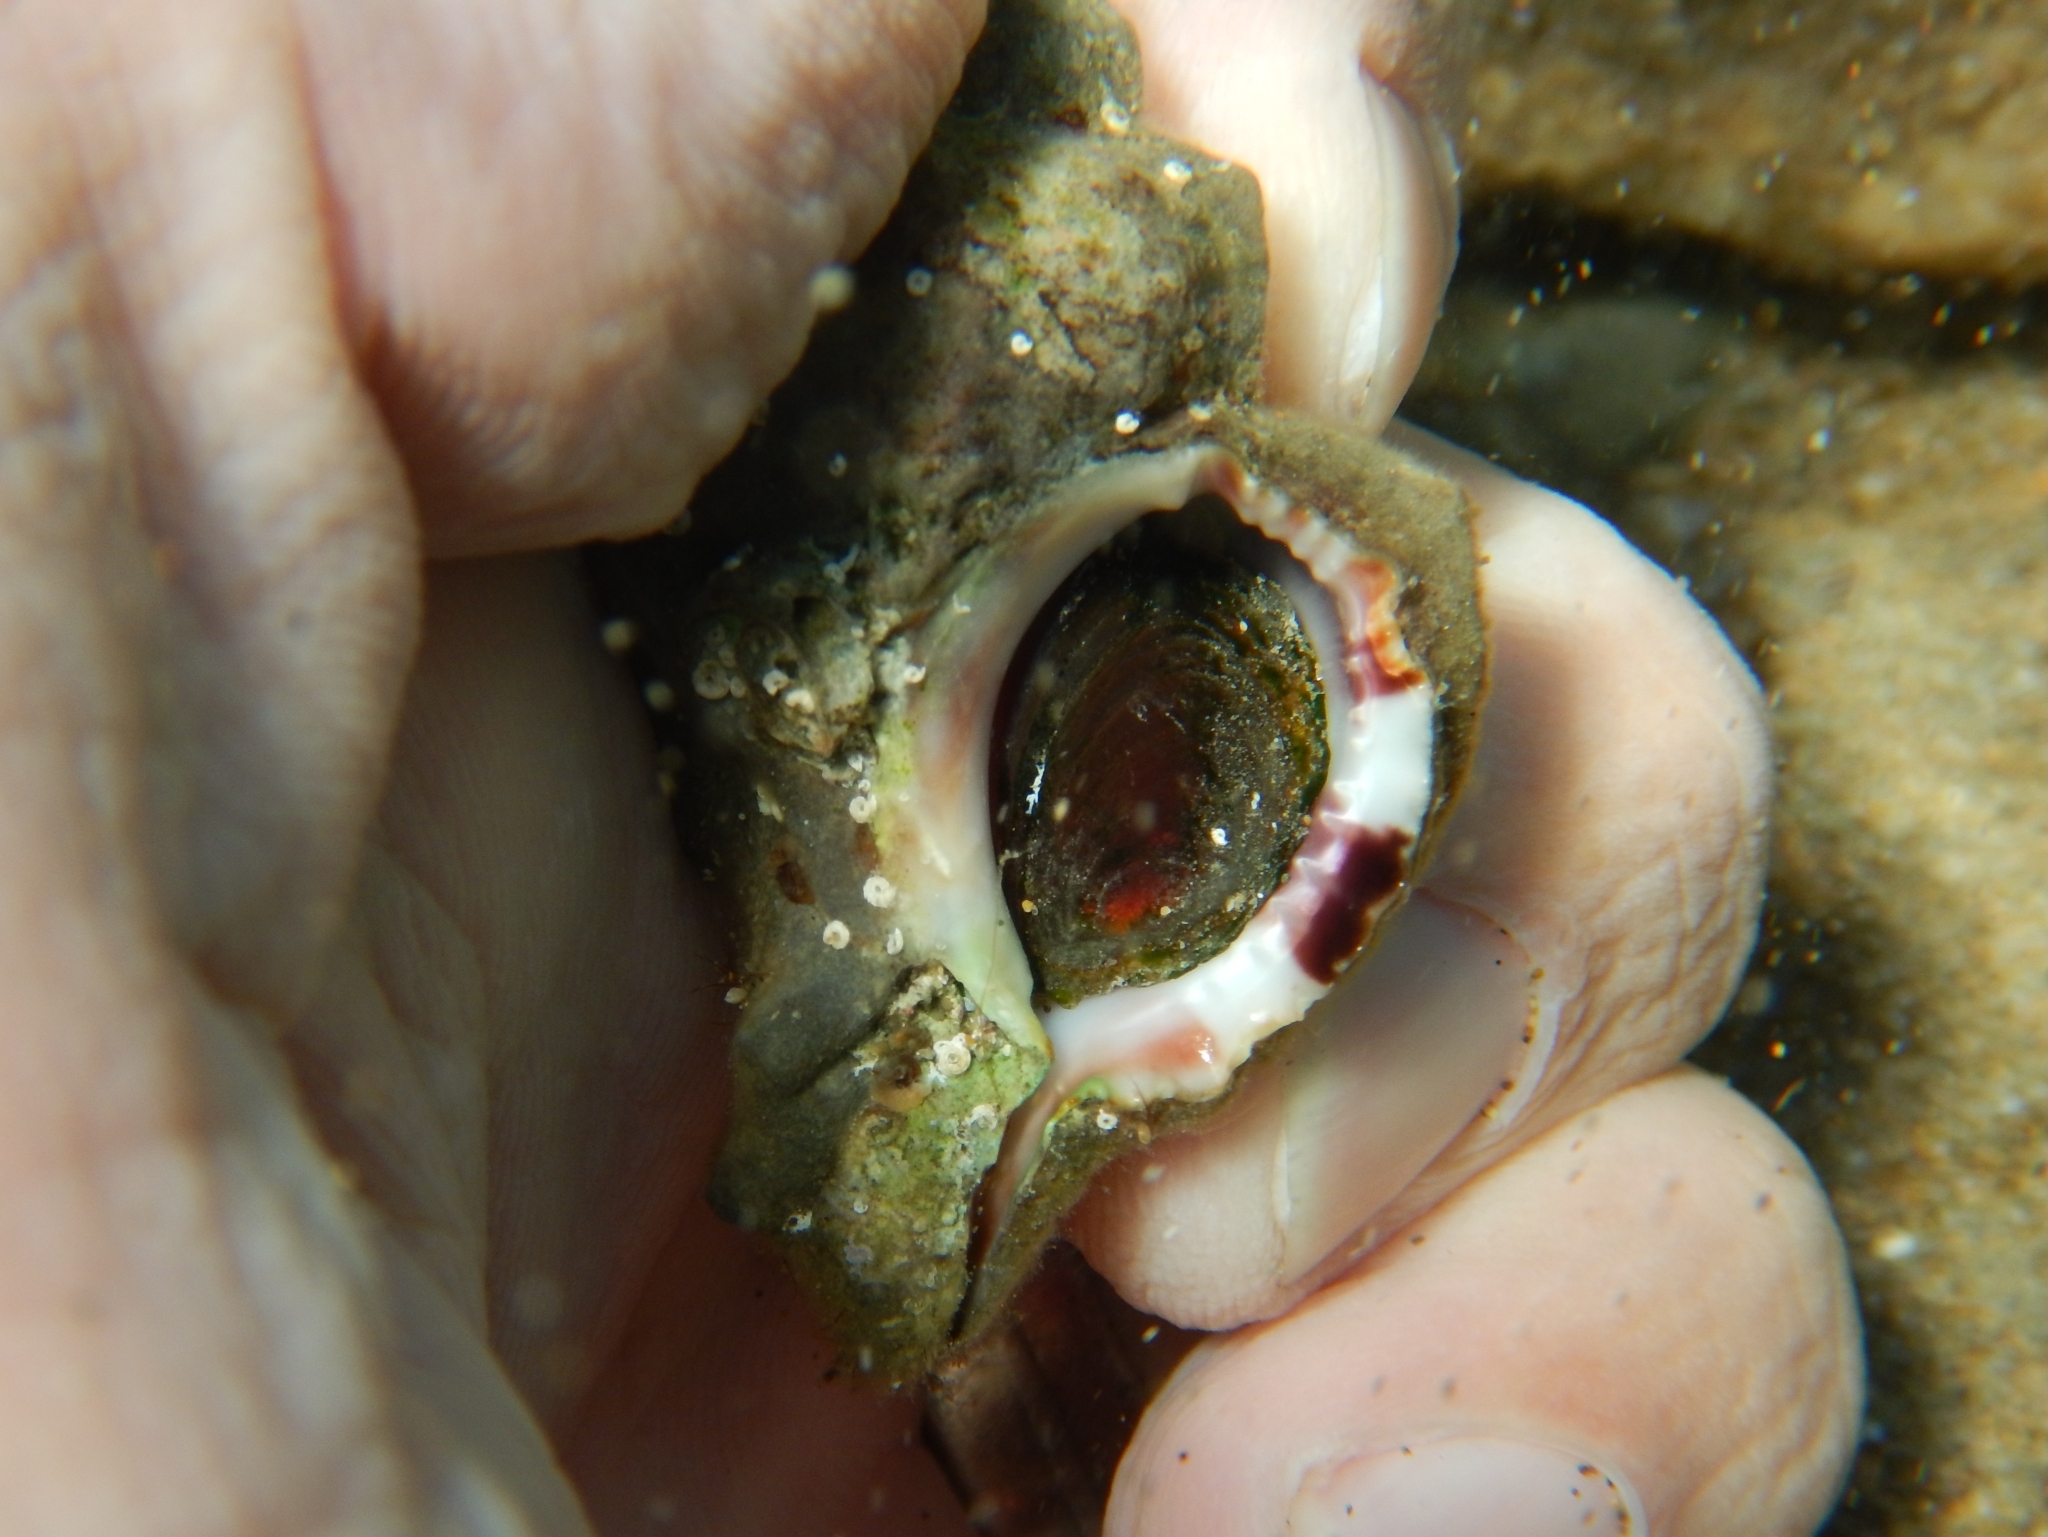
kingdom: Animalia
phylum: Mollusca
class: Gastropoda
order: Neogastropoda
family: Muricidae
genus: Hexaplex
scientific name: Hexaplex trunculus
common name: Banded dye-murex
